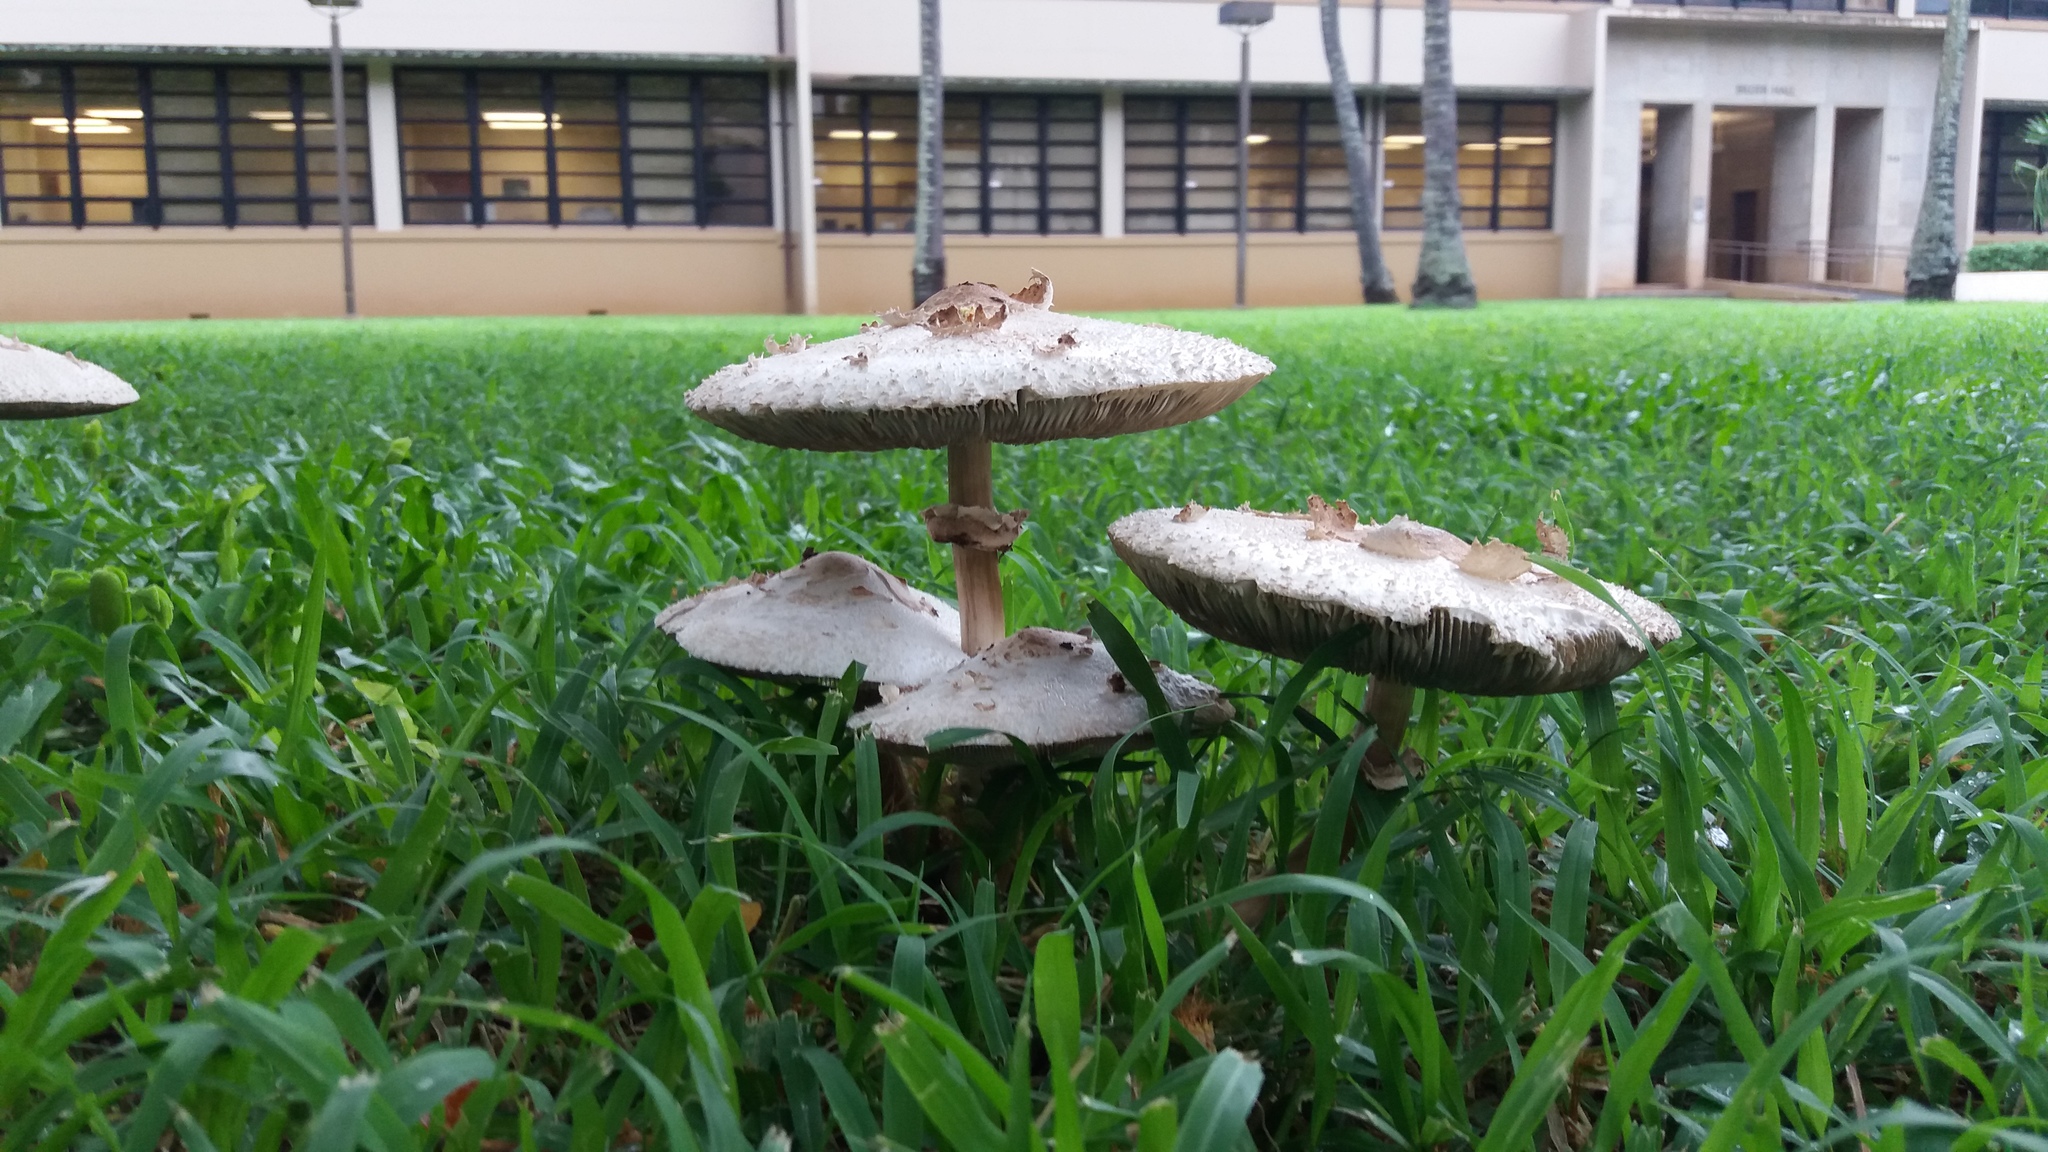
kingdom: Fungi
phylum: Basidiomycota
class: Agaricomycetes
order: Agaricales
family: Agaricaceae
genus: Chlorophyllum
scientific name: Chlorophyllum molybdites
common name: False parasol
